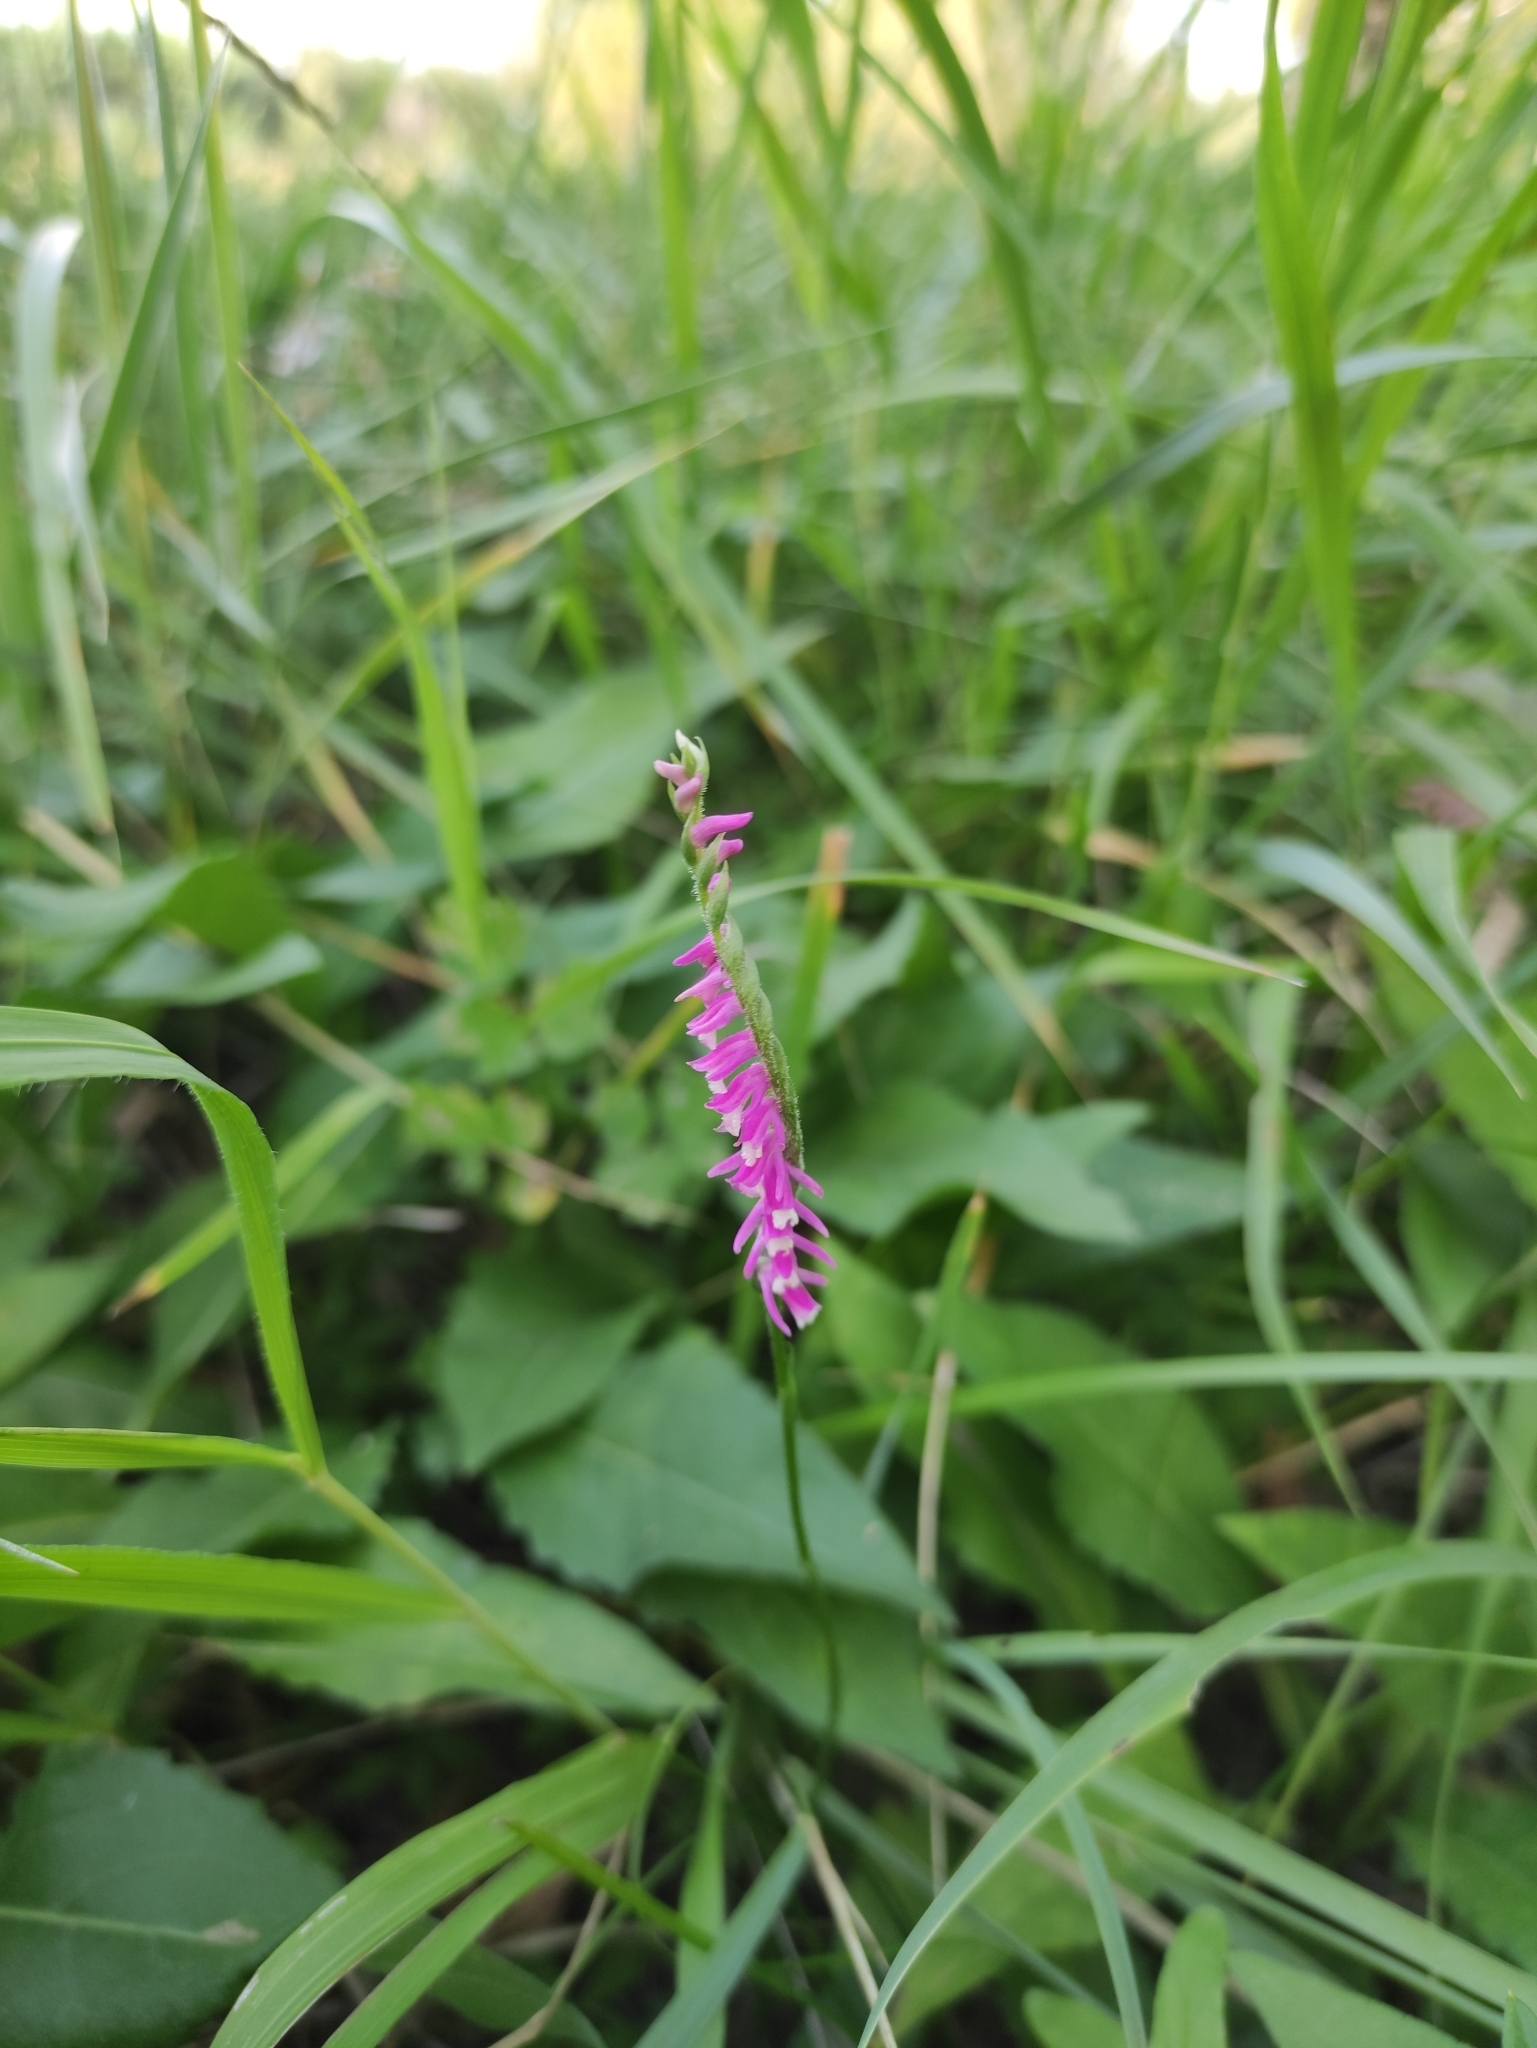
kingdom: Plantae
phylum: Tracheophyta
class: Liliopsida
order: Asparagales
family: Orchidaceae
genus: Spiranthes
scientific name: Spiranthes australis
